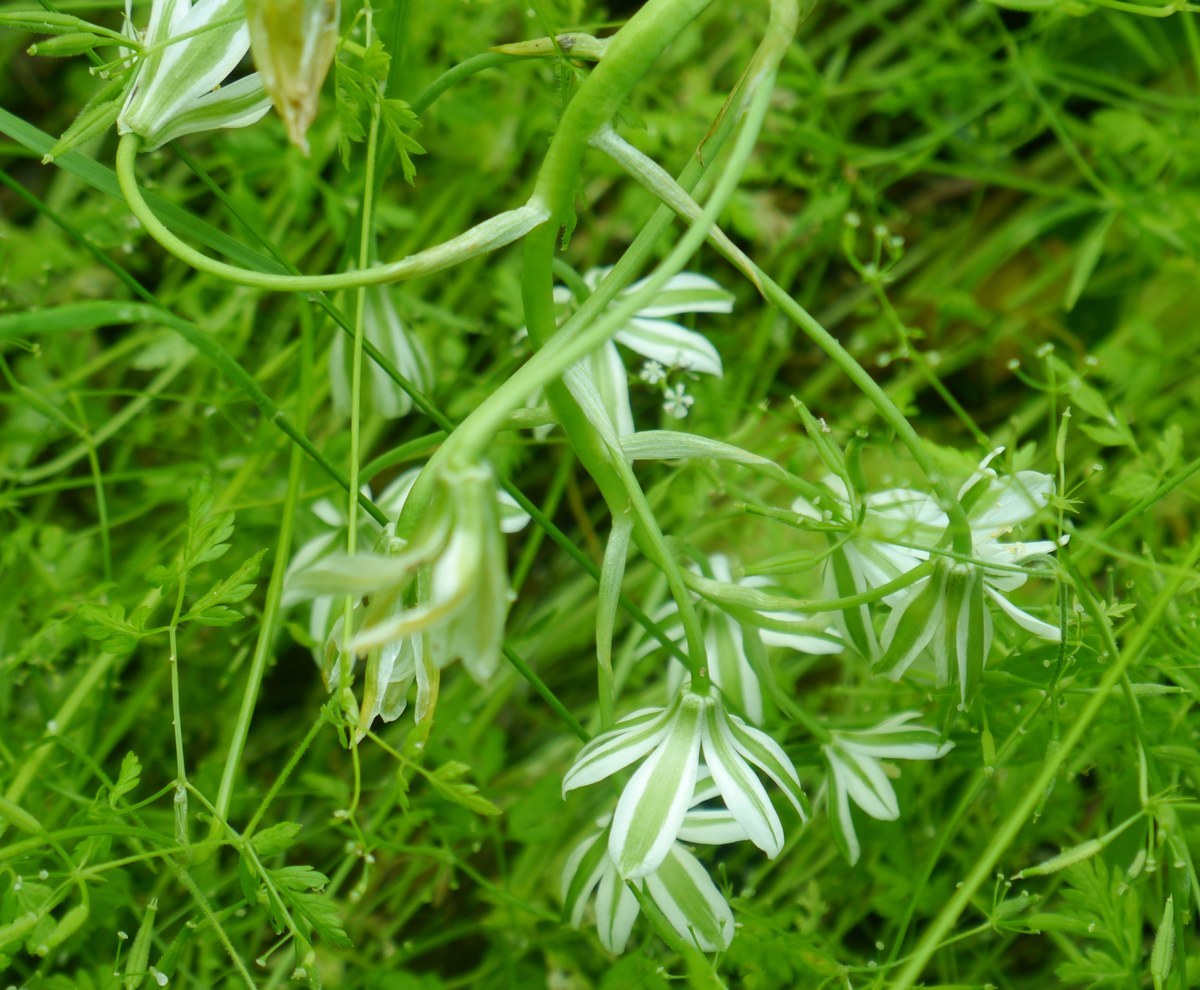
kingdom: Plantae
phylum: Tracheophyta
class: Liliopsida
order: Asparagales
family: Asparagaceae
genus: Ornithogalum
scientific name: Ornithogalum orthophyllum
